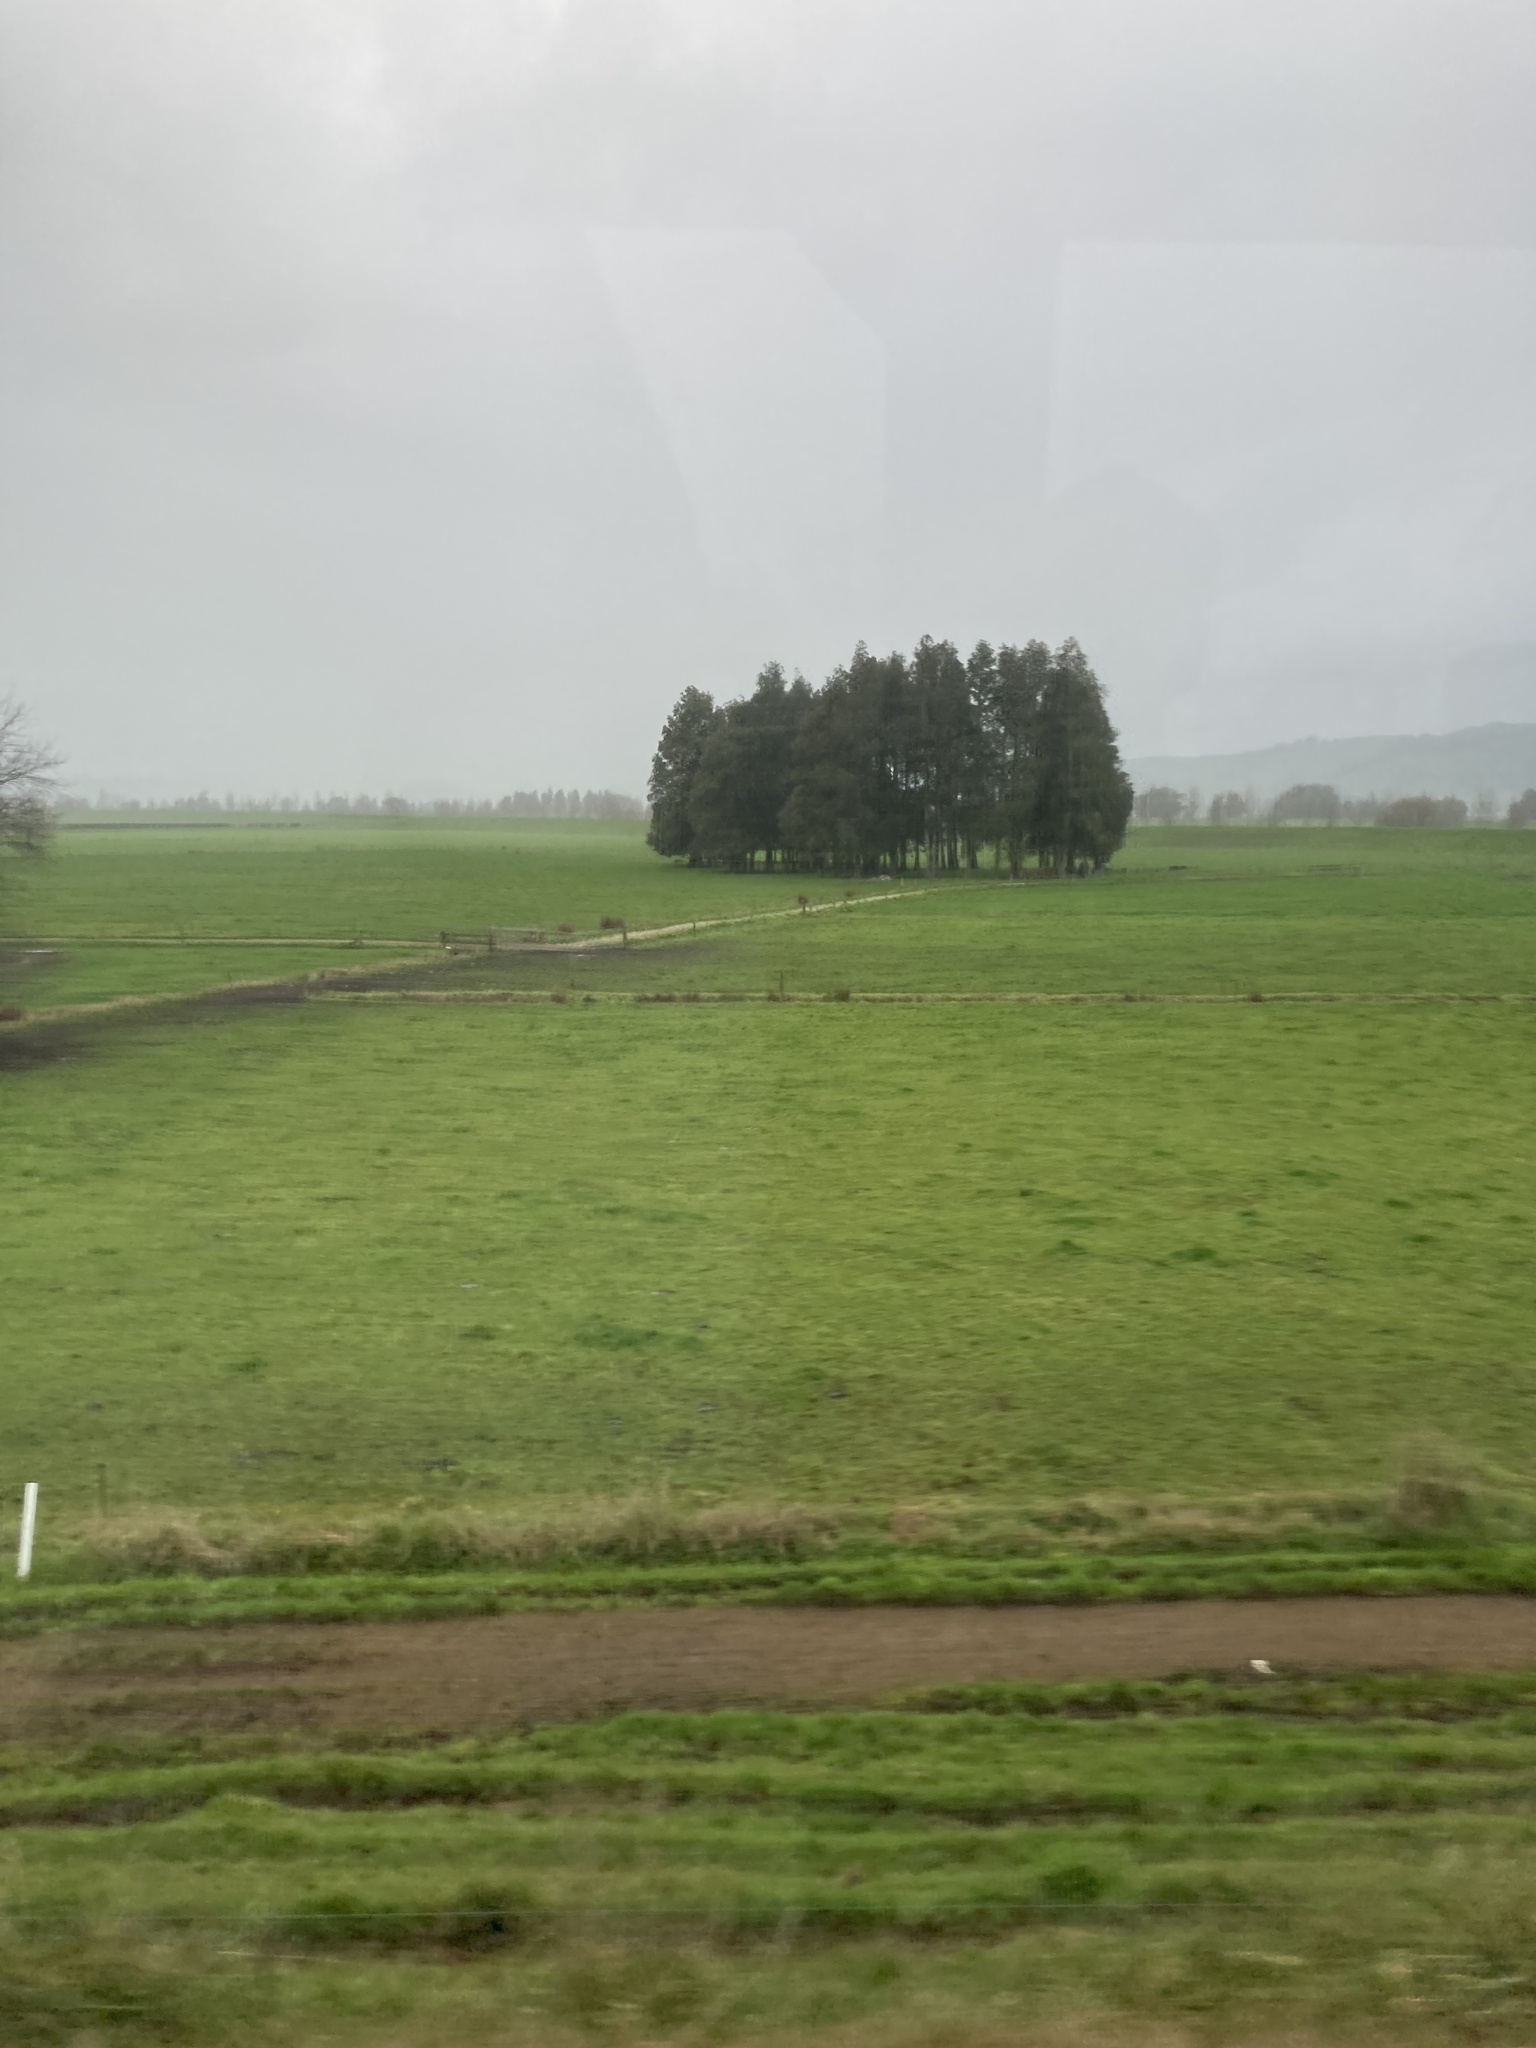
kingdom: Plantae
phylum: Tracheophyta
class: Pinopsida
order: Pinales
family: Podocarpaceae
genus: Dacrycarpus
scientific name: Dacrycarpus dacrydioides
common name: White pine
